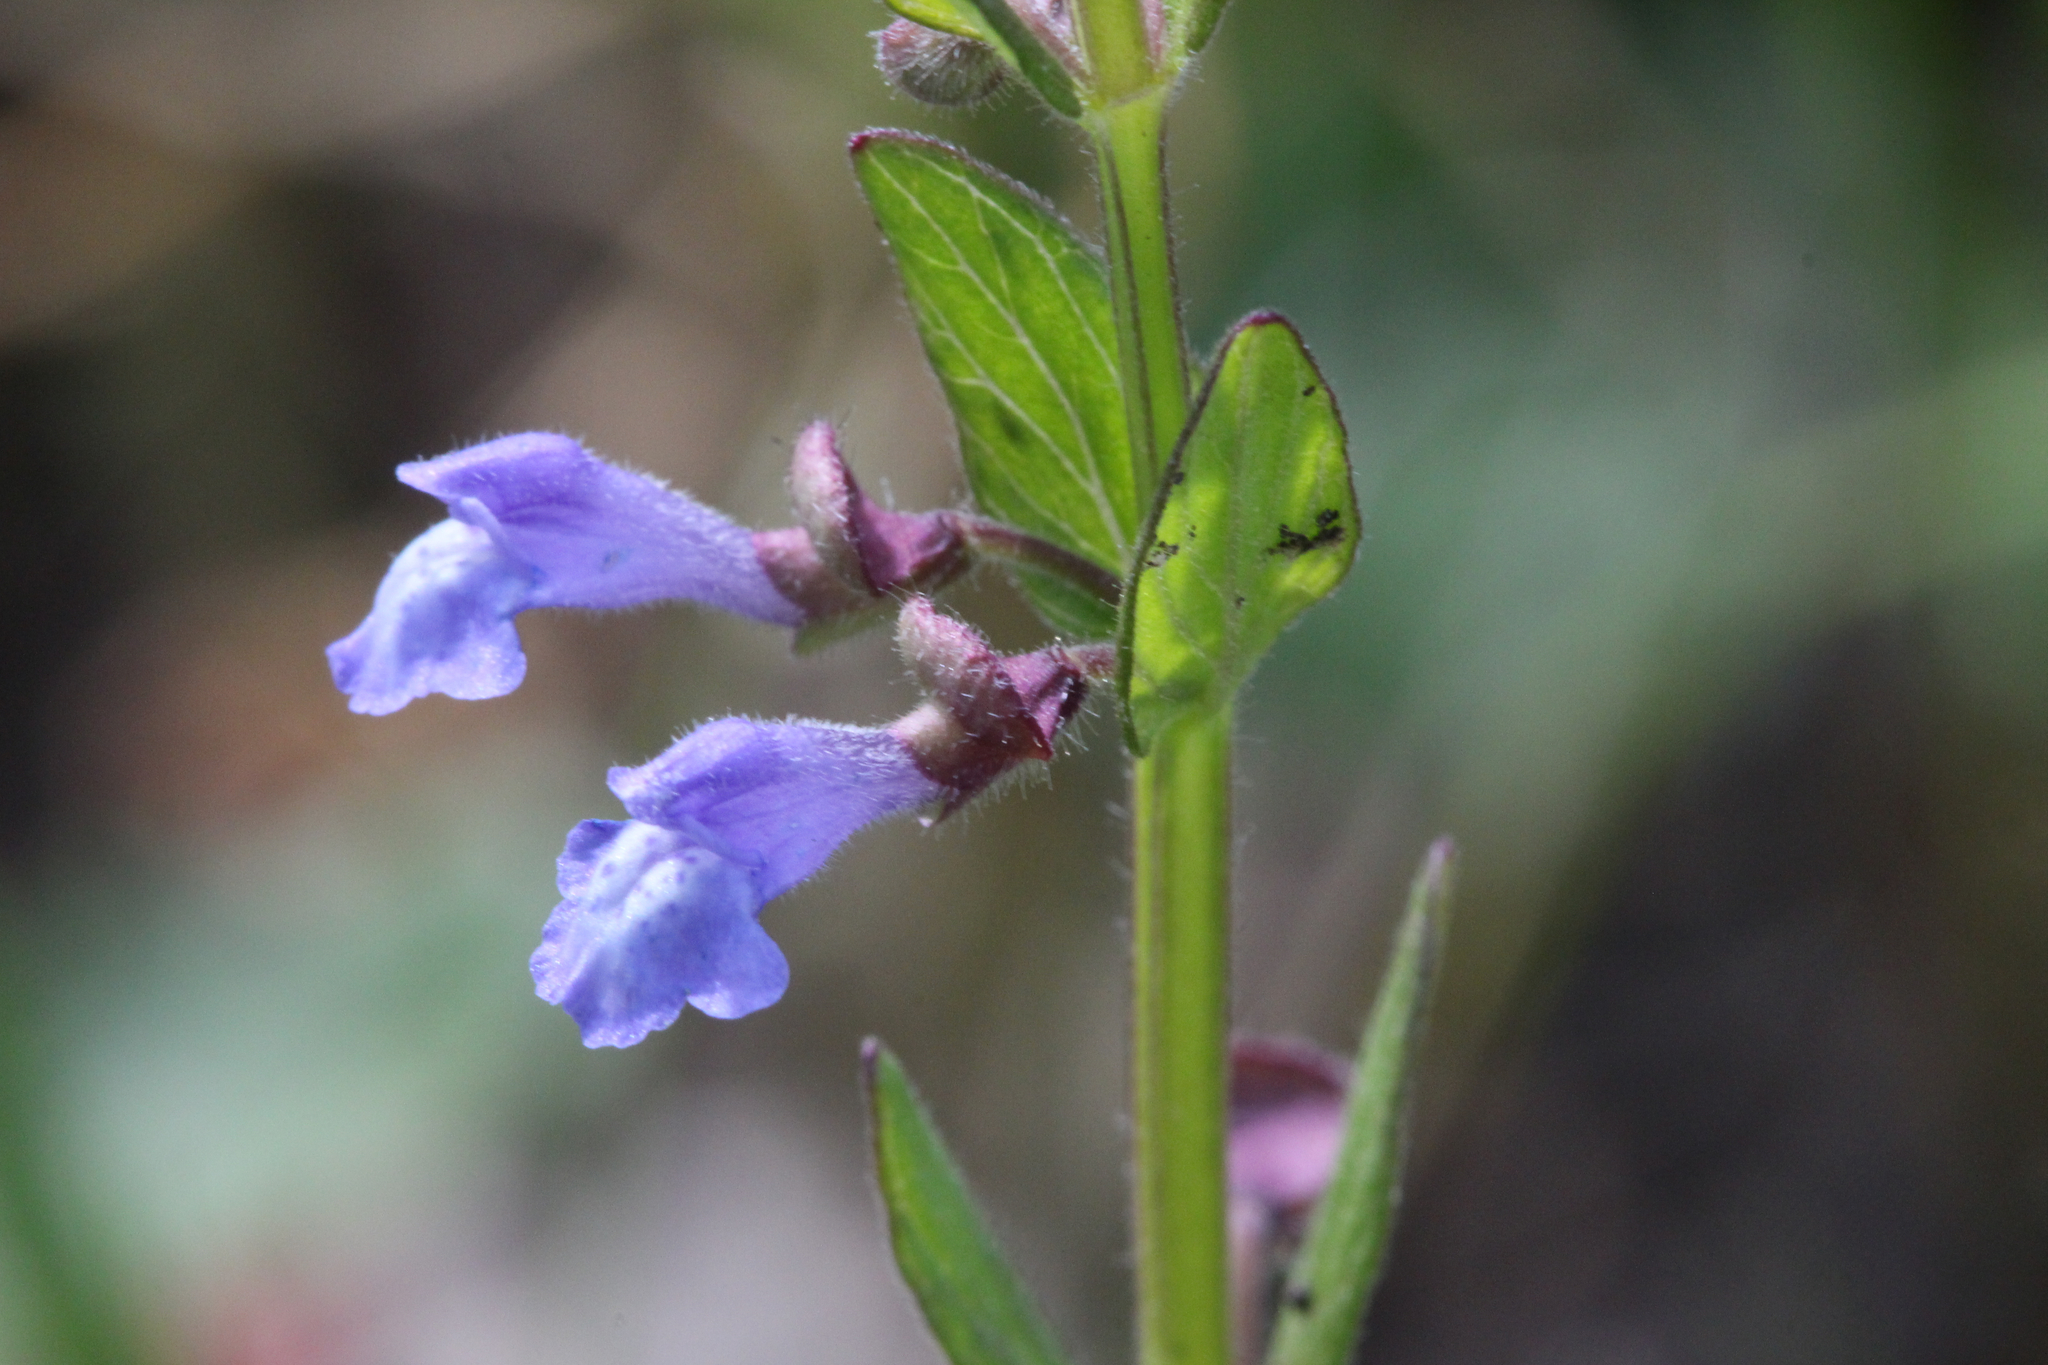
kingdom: Plantae
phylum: Tracheophyta
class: Magnoliopsida
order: Lamiales
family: Lamiaceae
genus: Scutellaria
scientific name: Scutellaria parvula
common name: Little scullcap
